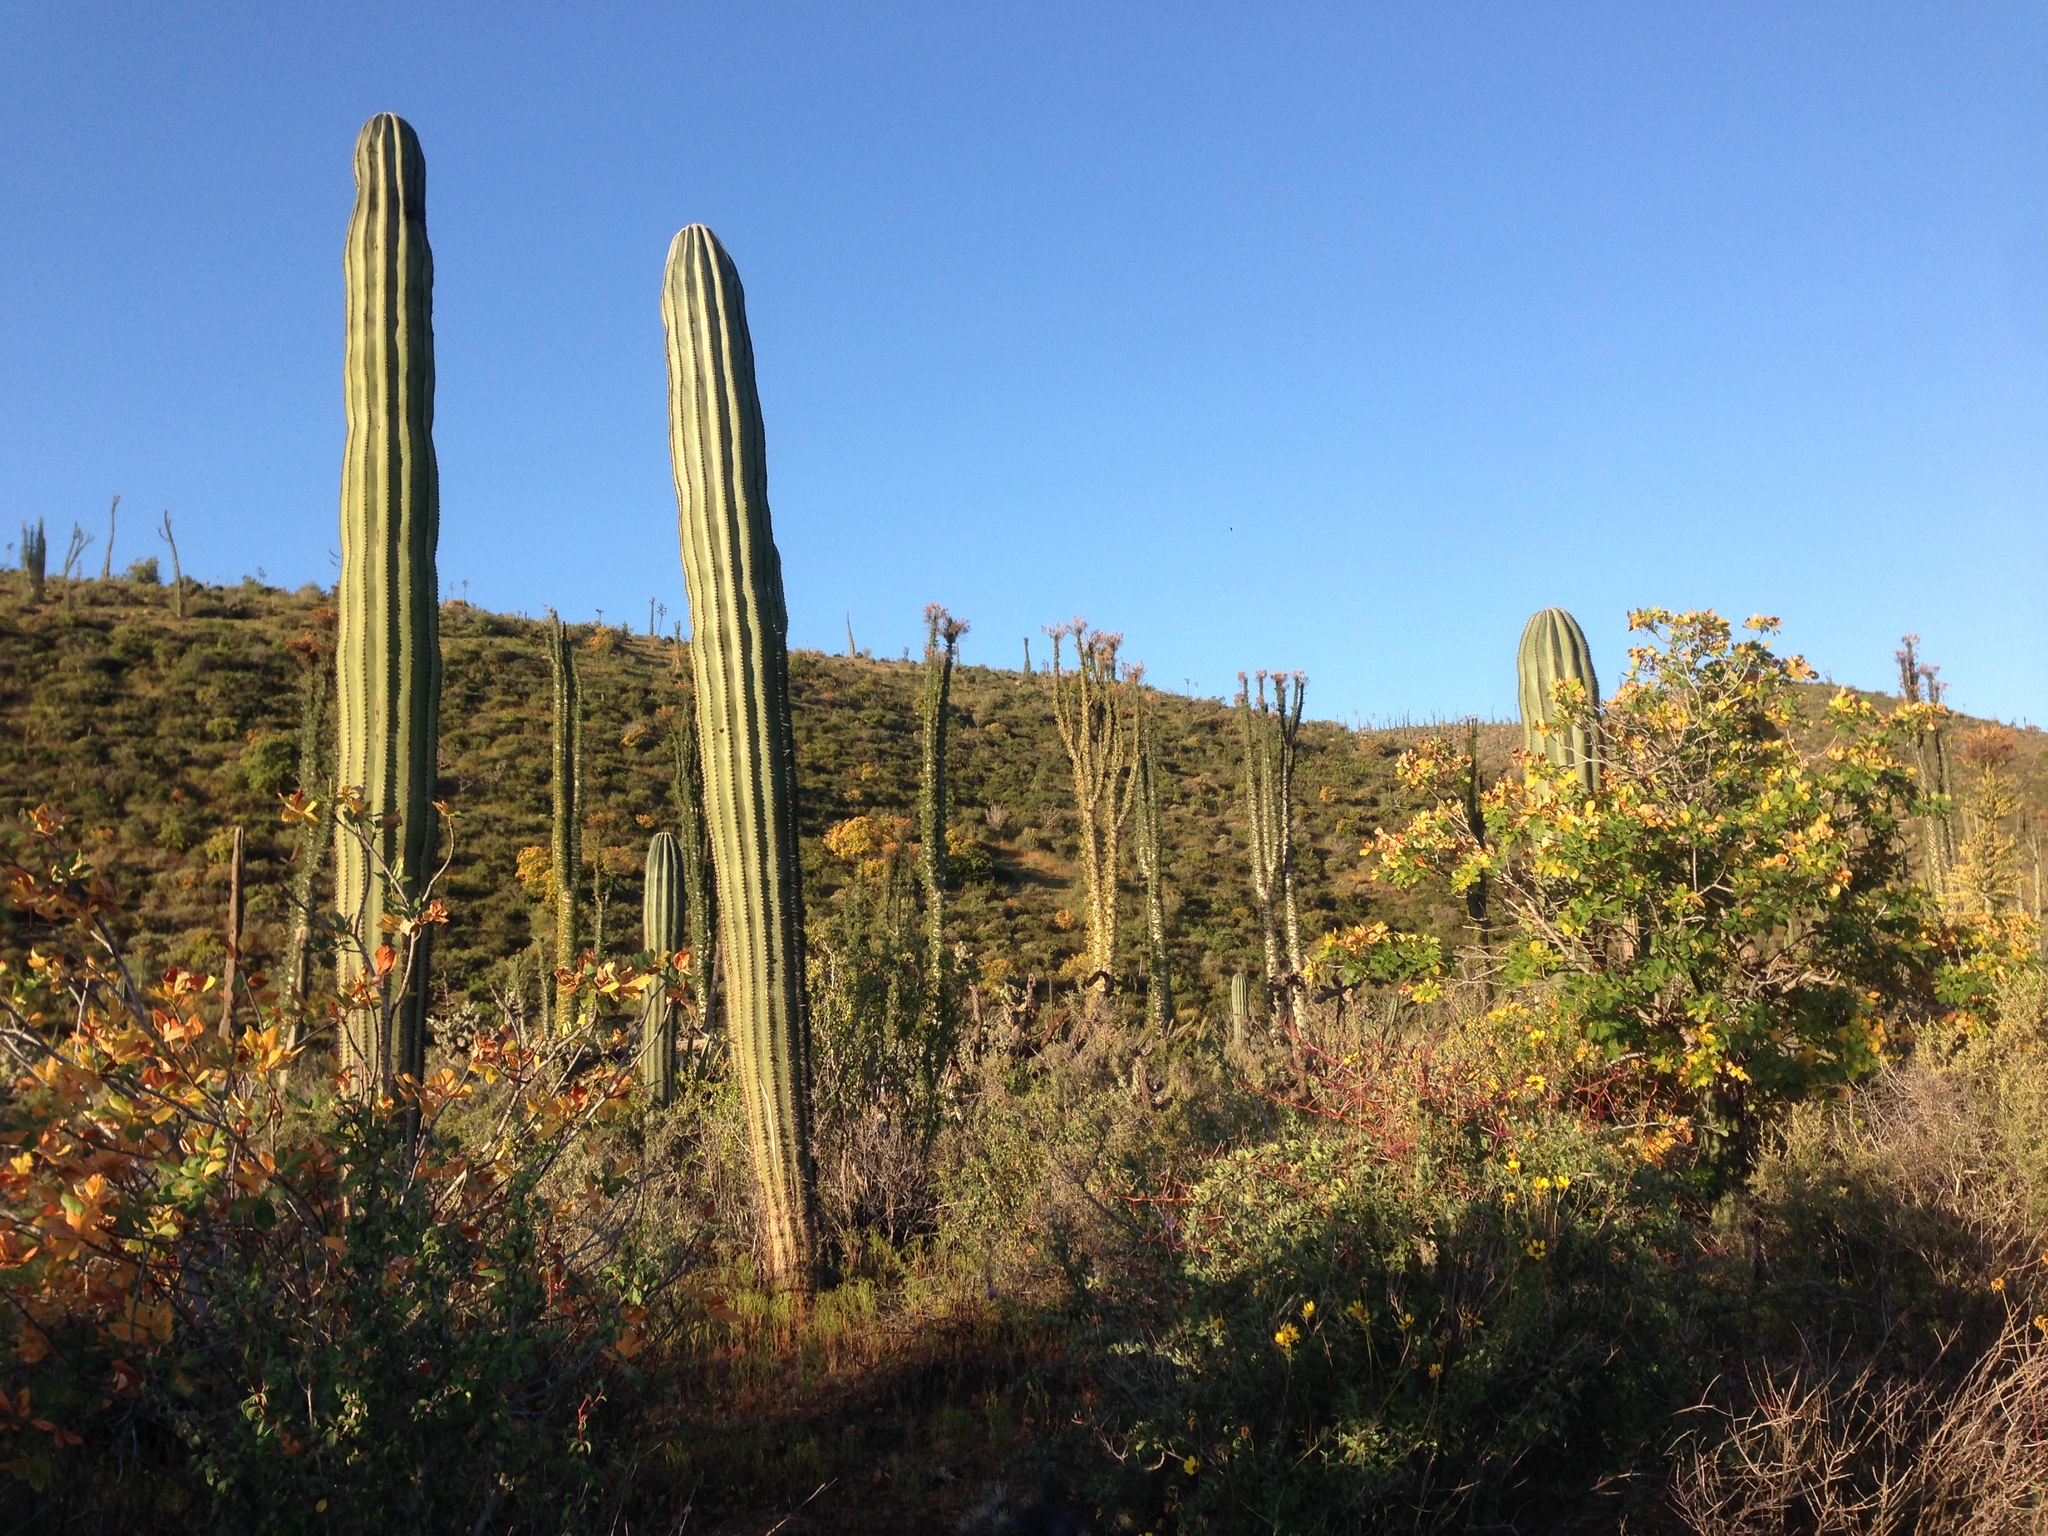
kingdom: Plantae
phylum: Tracheophyta
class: Magnoliopsida
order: Sapindales
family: Sapindaceae
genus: Aesculus
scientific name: Aesculus parryi
